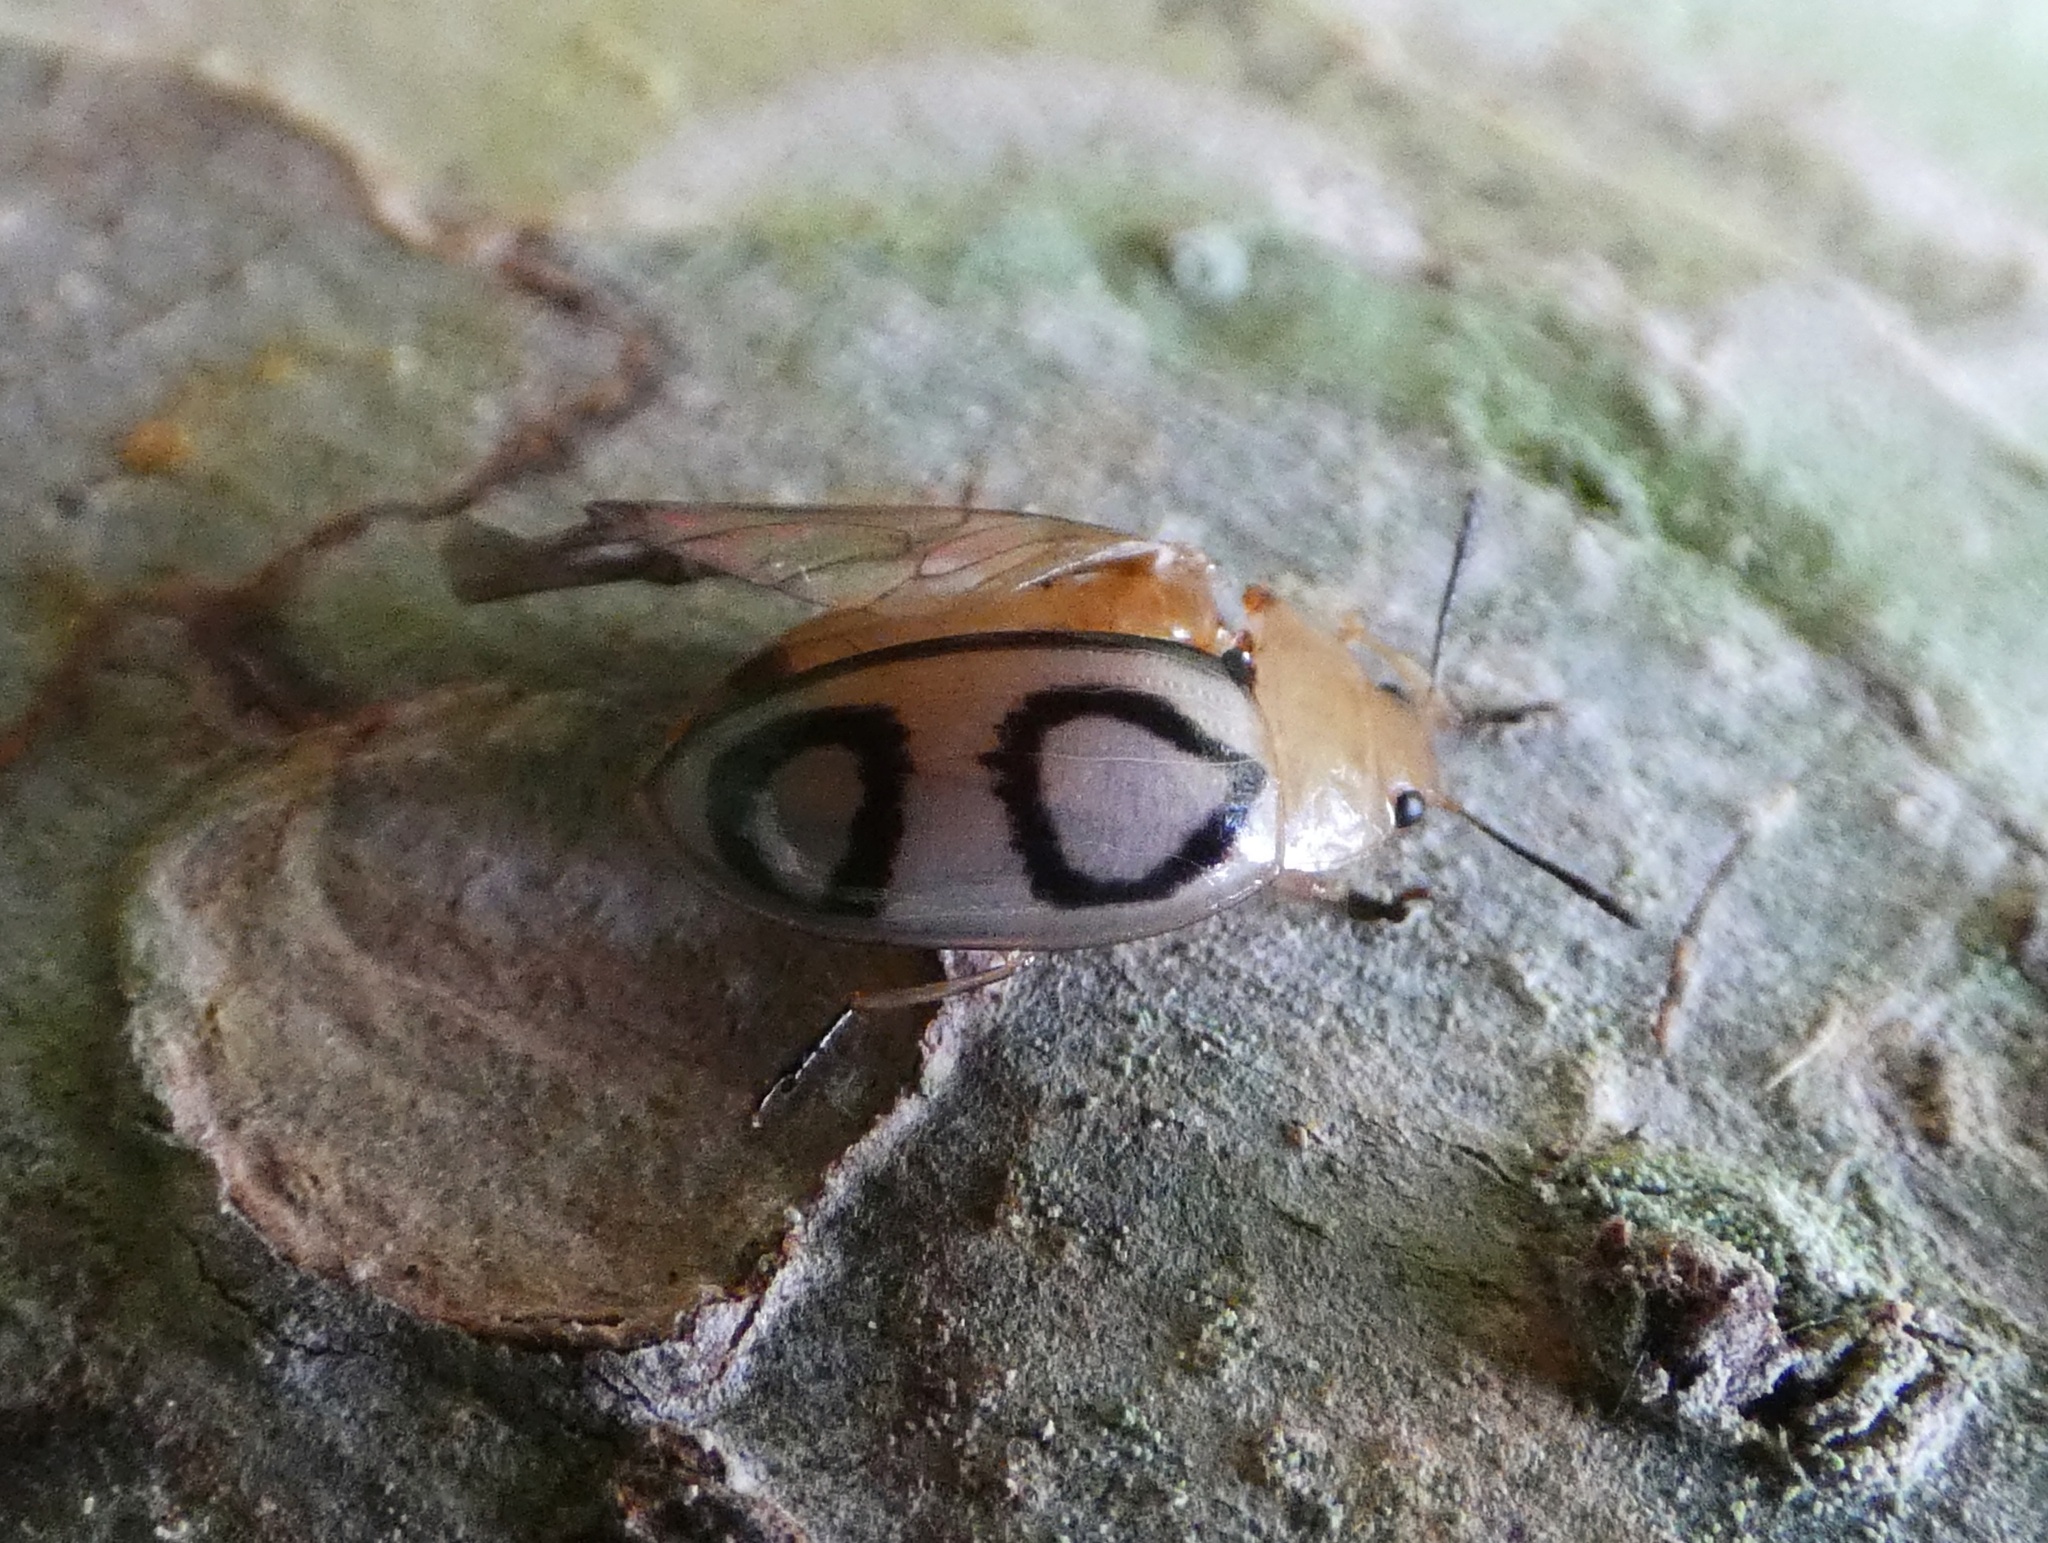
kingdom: Animalia
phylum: Arthropoda
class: Insecta
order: Coleoptera
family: Erotylidae
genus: Iphiclus
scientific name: Iphiclus
